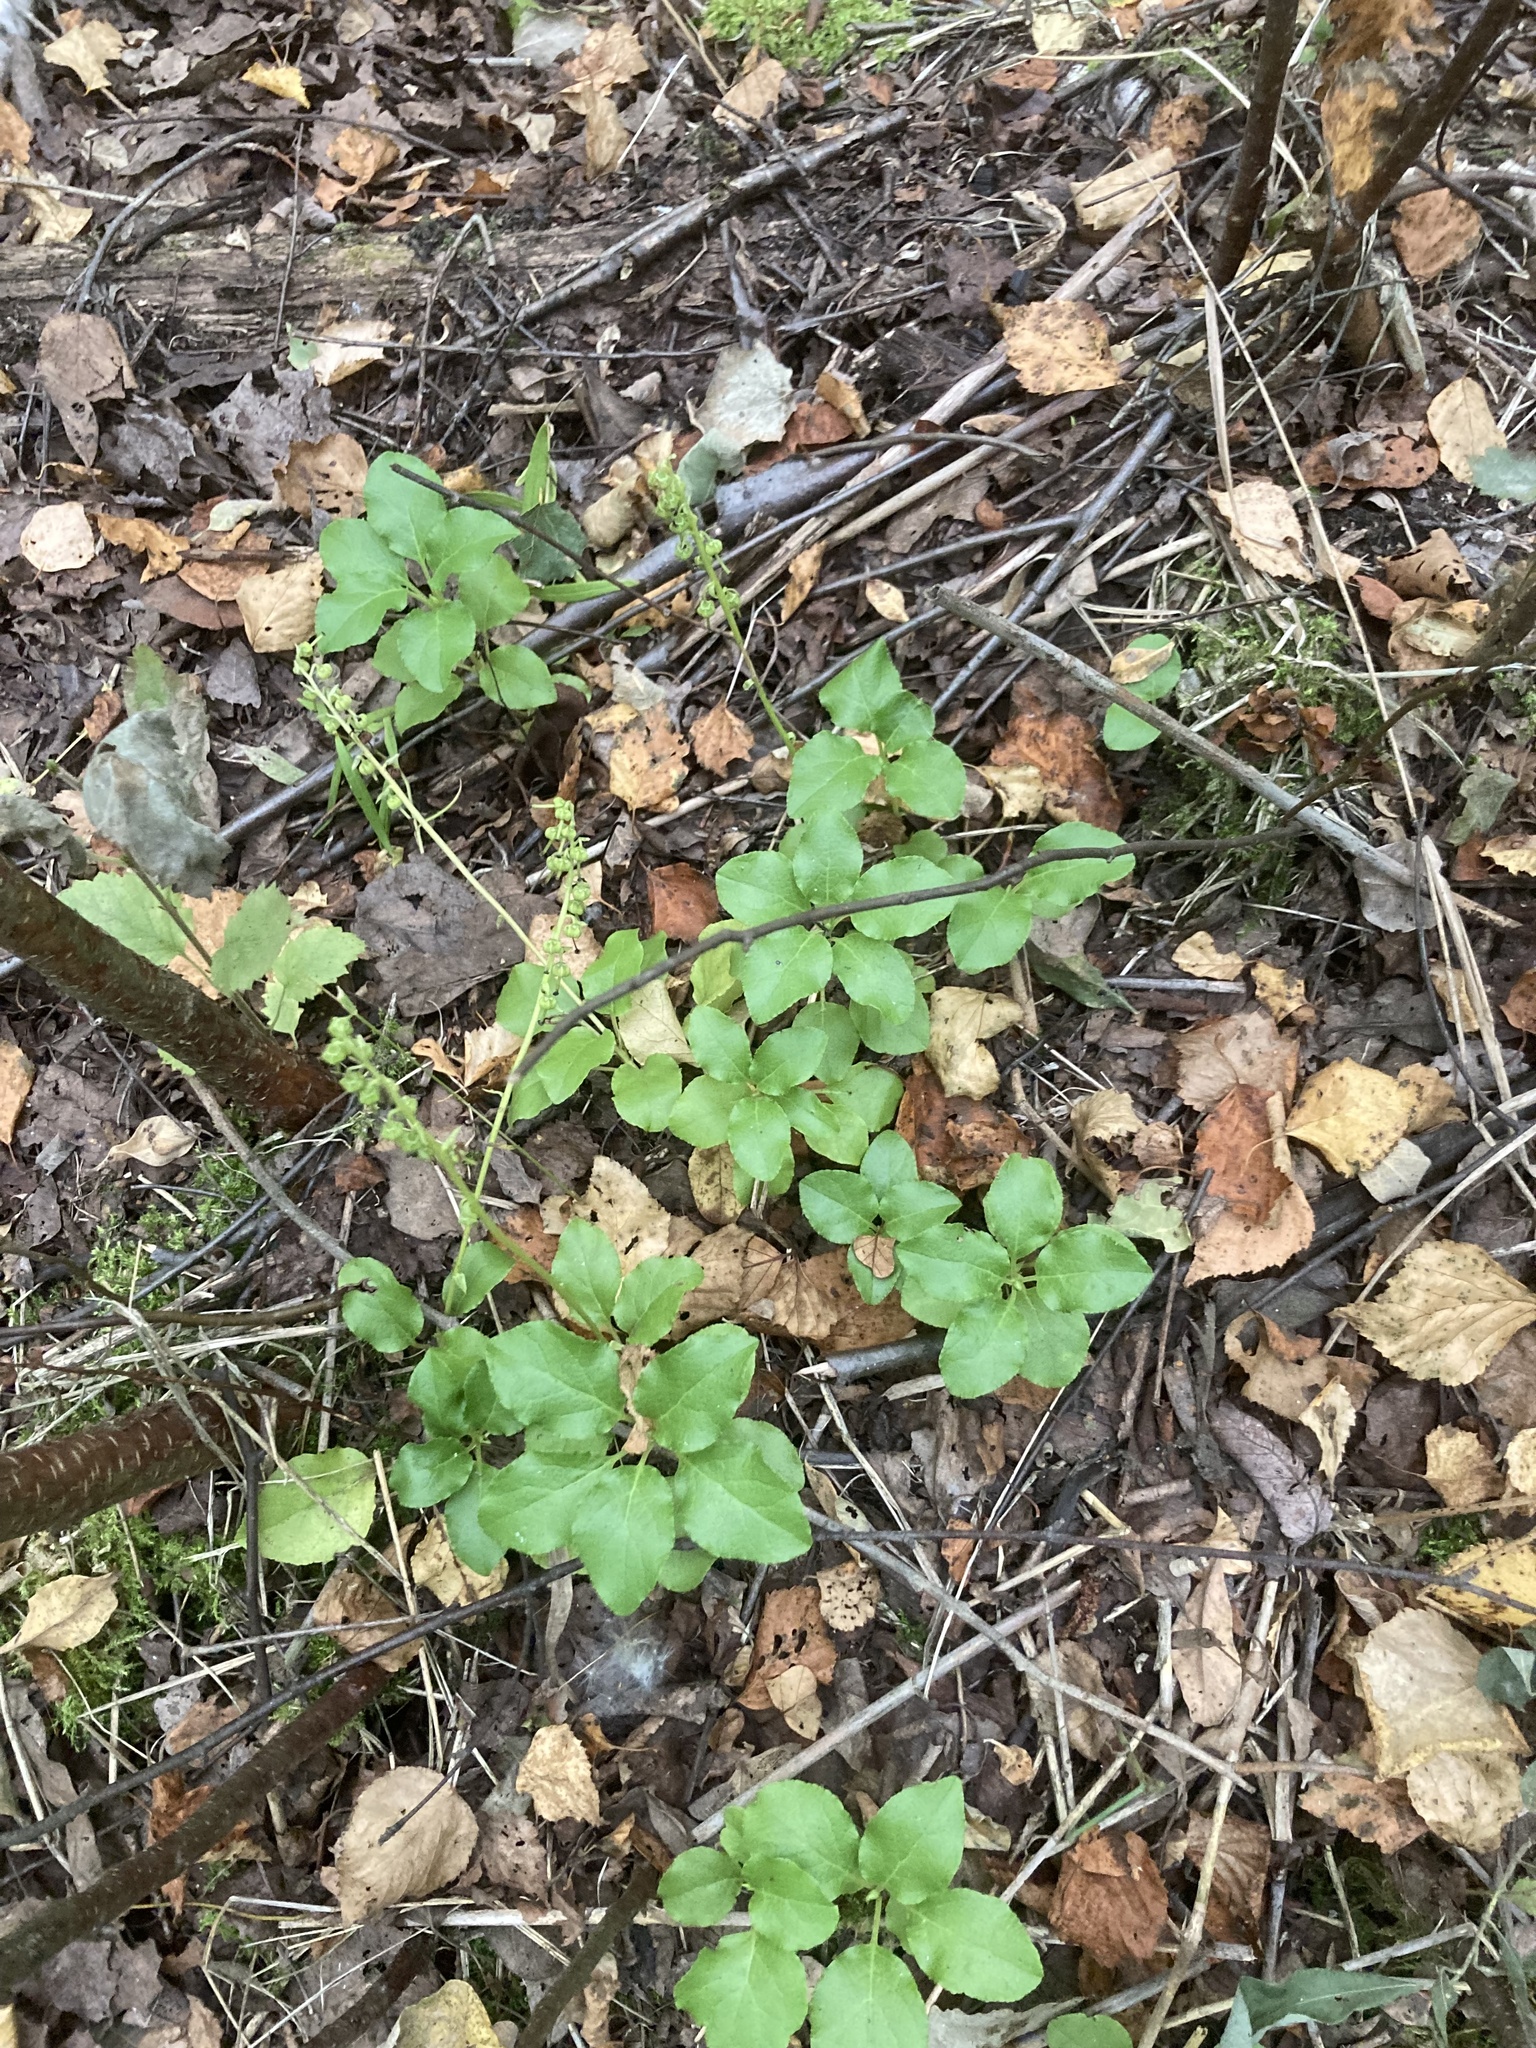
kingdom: Plantae
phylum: Tracheophyta
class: Magnoliopsida
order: Ericales
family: Ericaceae
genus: Orthilia
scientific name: Orthilia secunda
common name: One-sided orthilia
